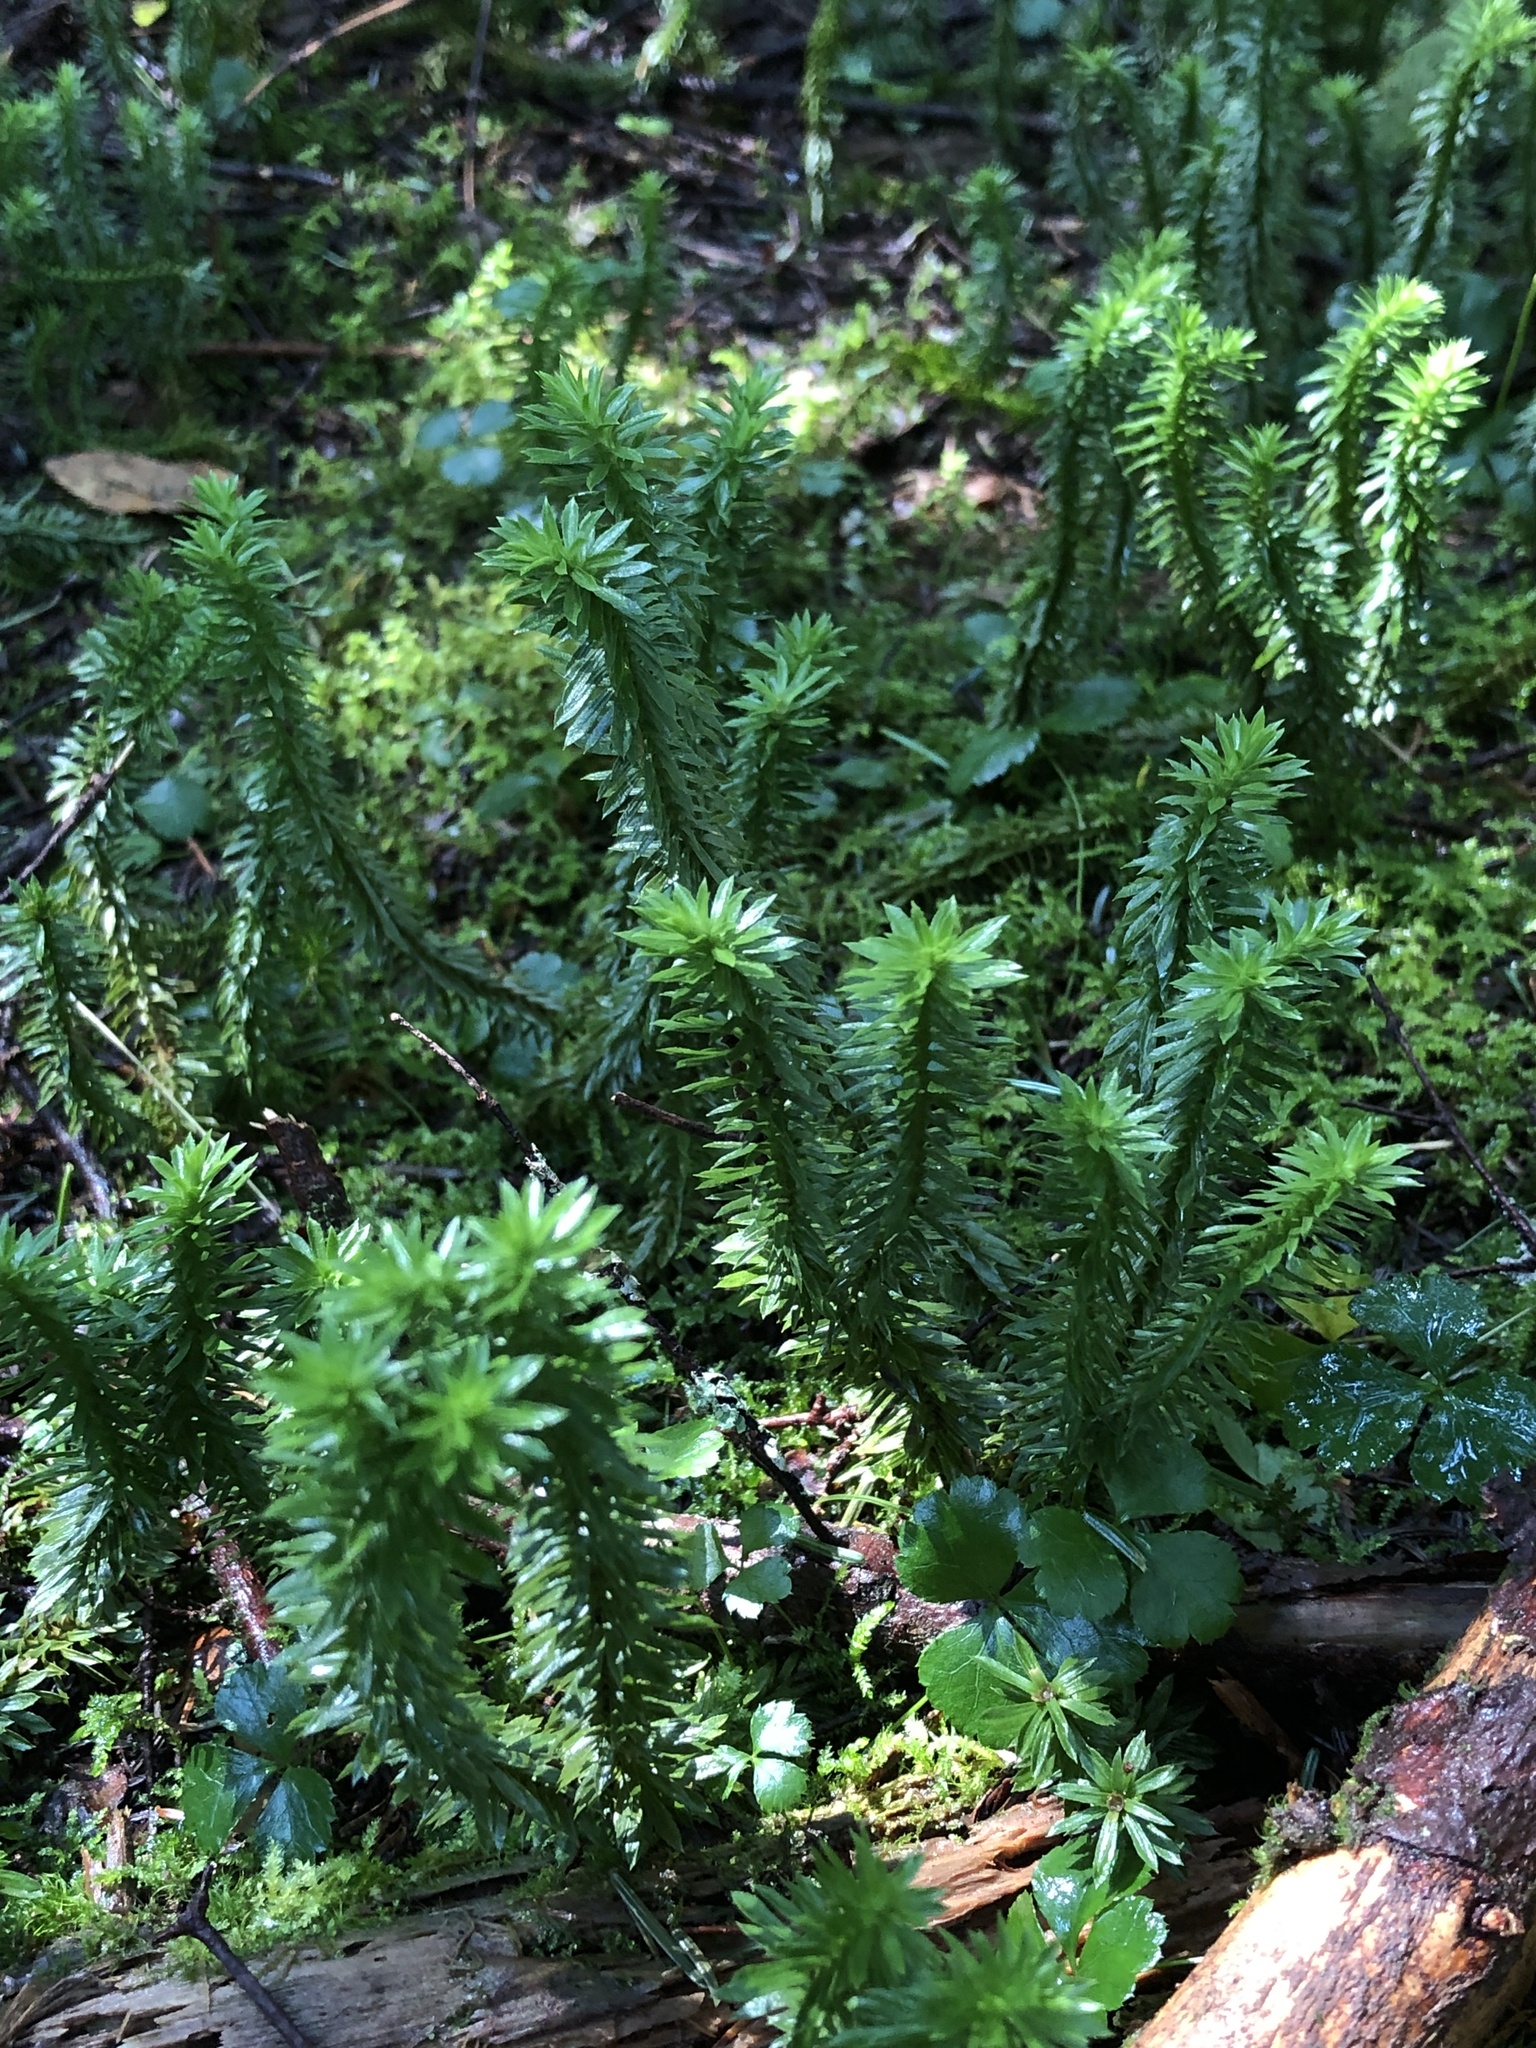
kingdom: Plantae
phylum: Tracheophyta
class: Lycopodiopsida
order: Lycopodiales
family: Lycopodiaceae
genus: Huperzia
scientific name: Huperzia lucidula
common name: Shining clubmoss
